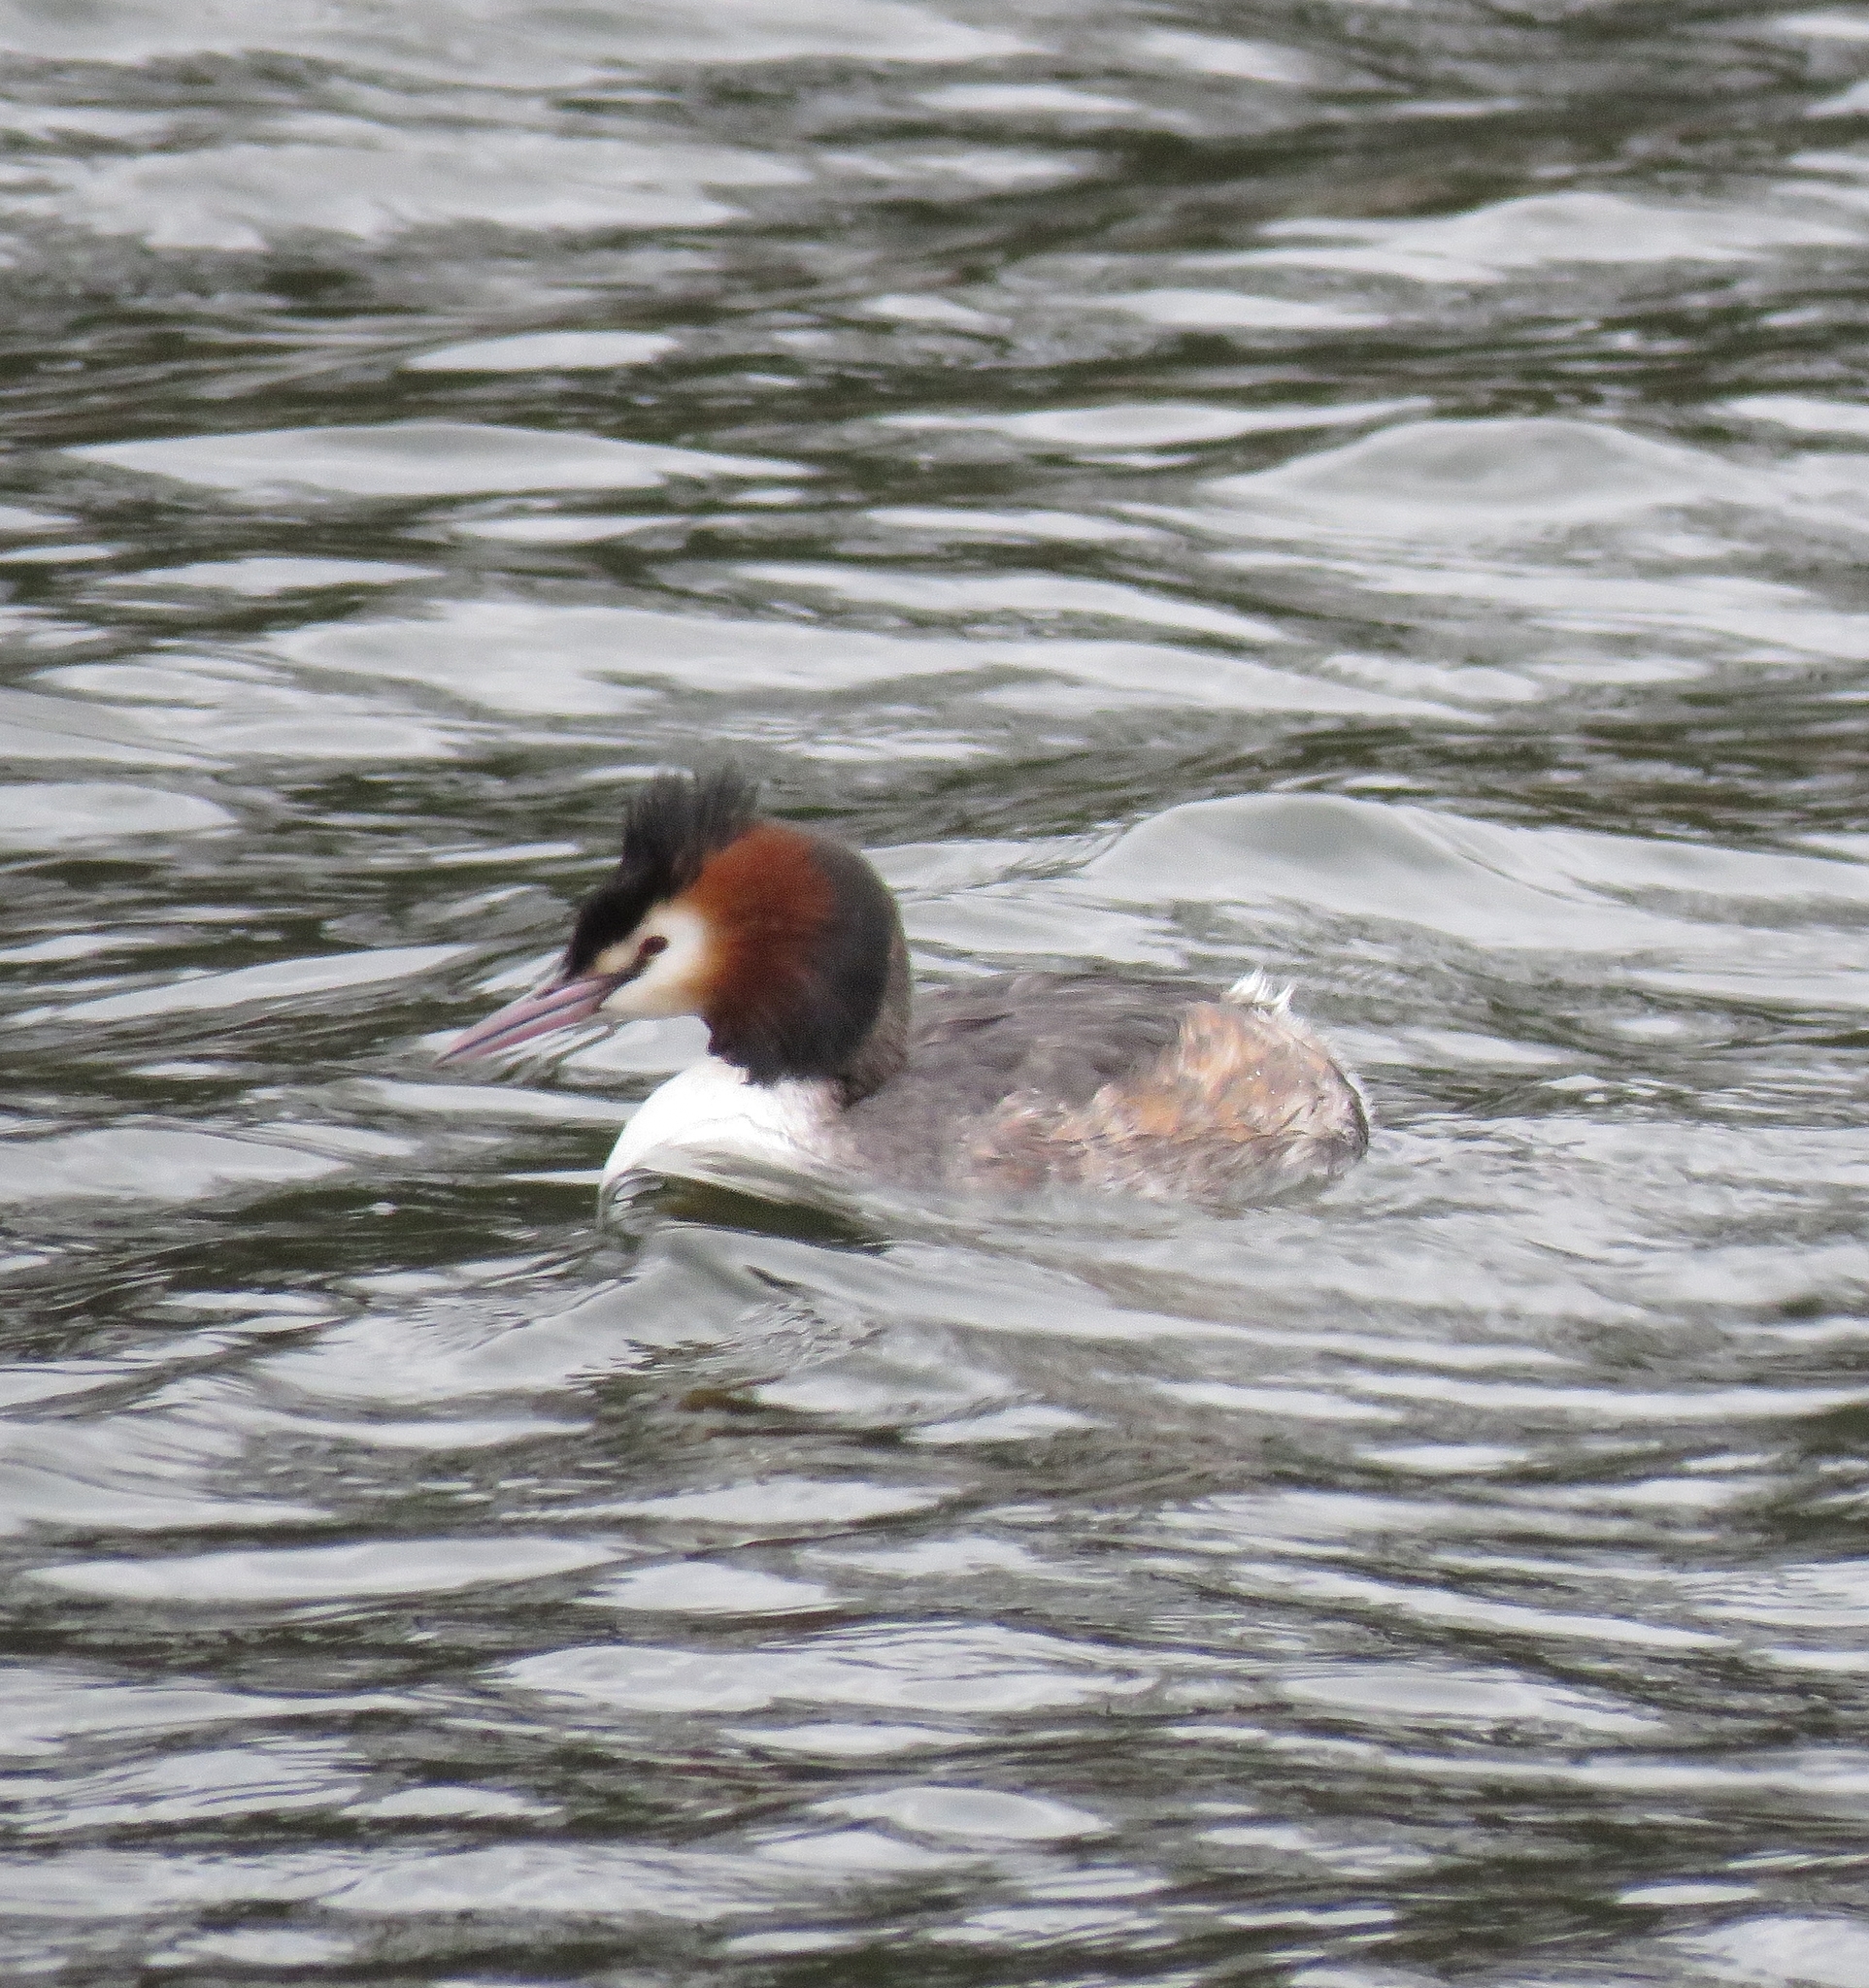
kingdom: Animalia
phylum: Chordata
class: Aves
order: Podicipediformes
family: Podicipedidae
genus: Podiceps
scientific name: Podiceps cristatus
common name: Great crested grebe
